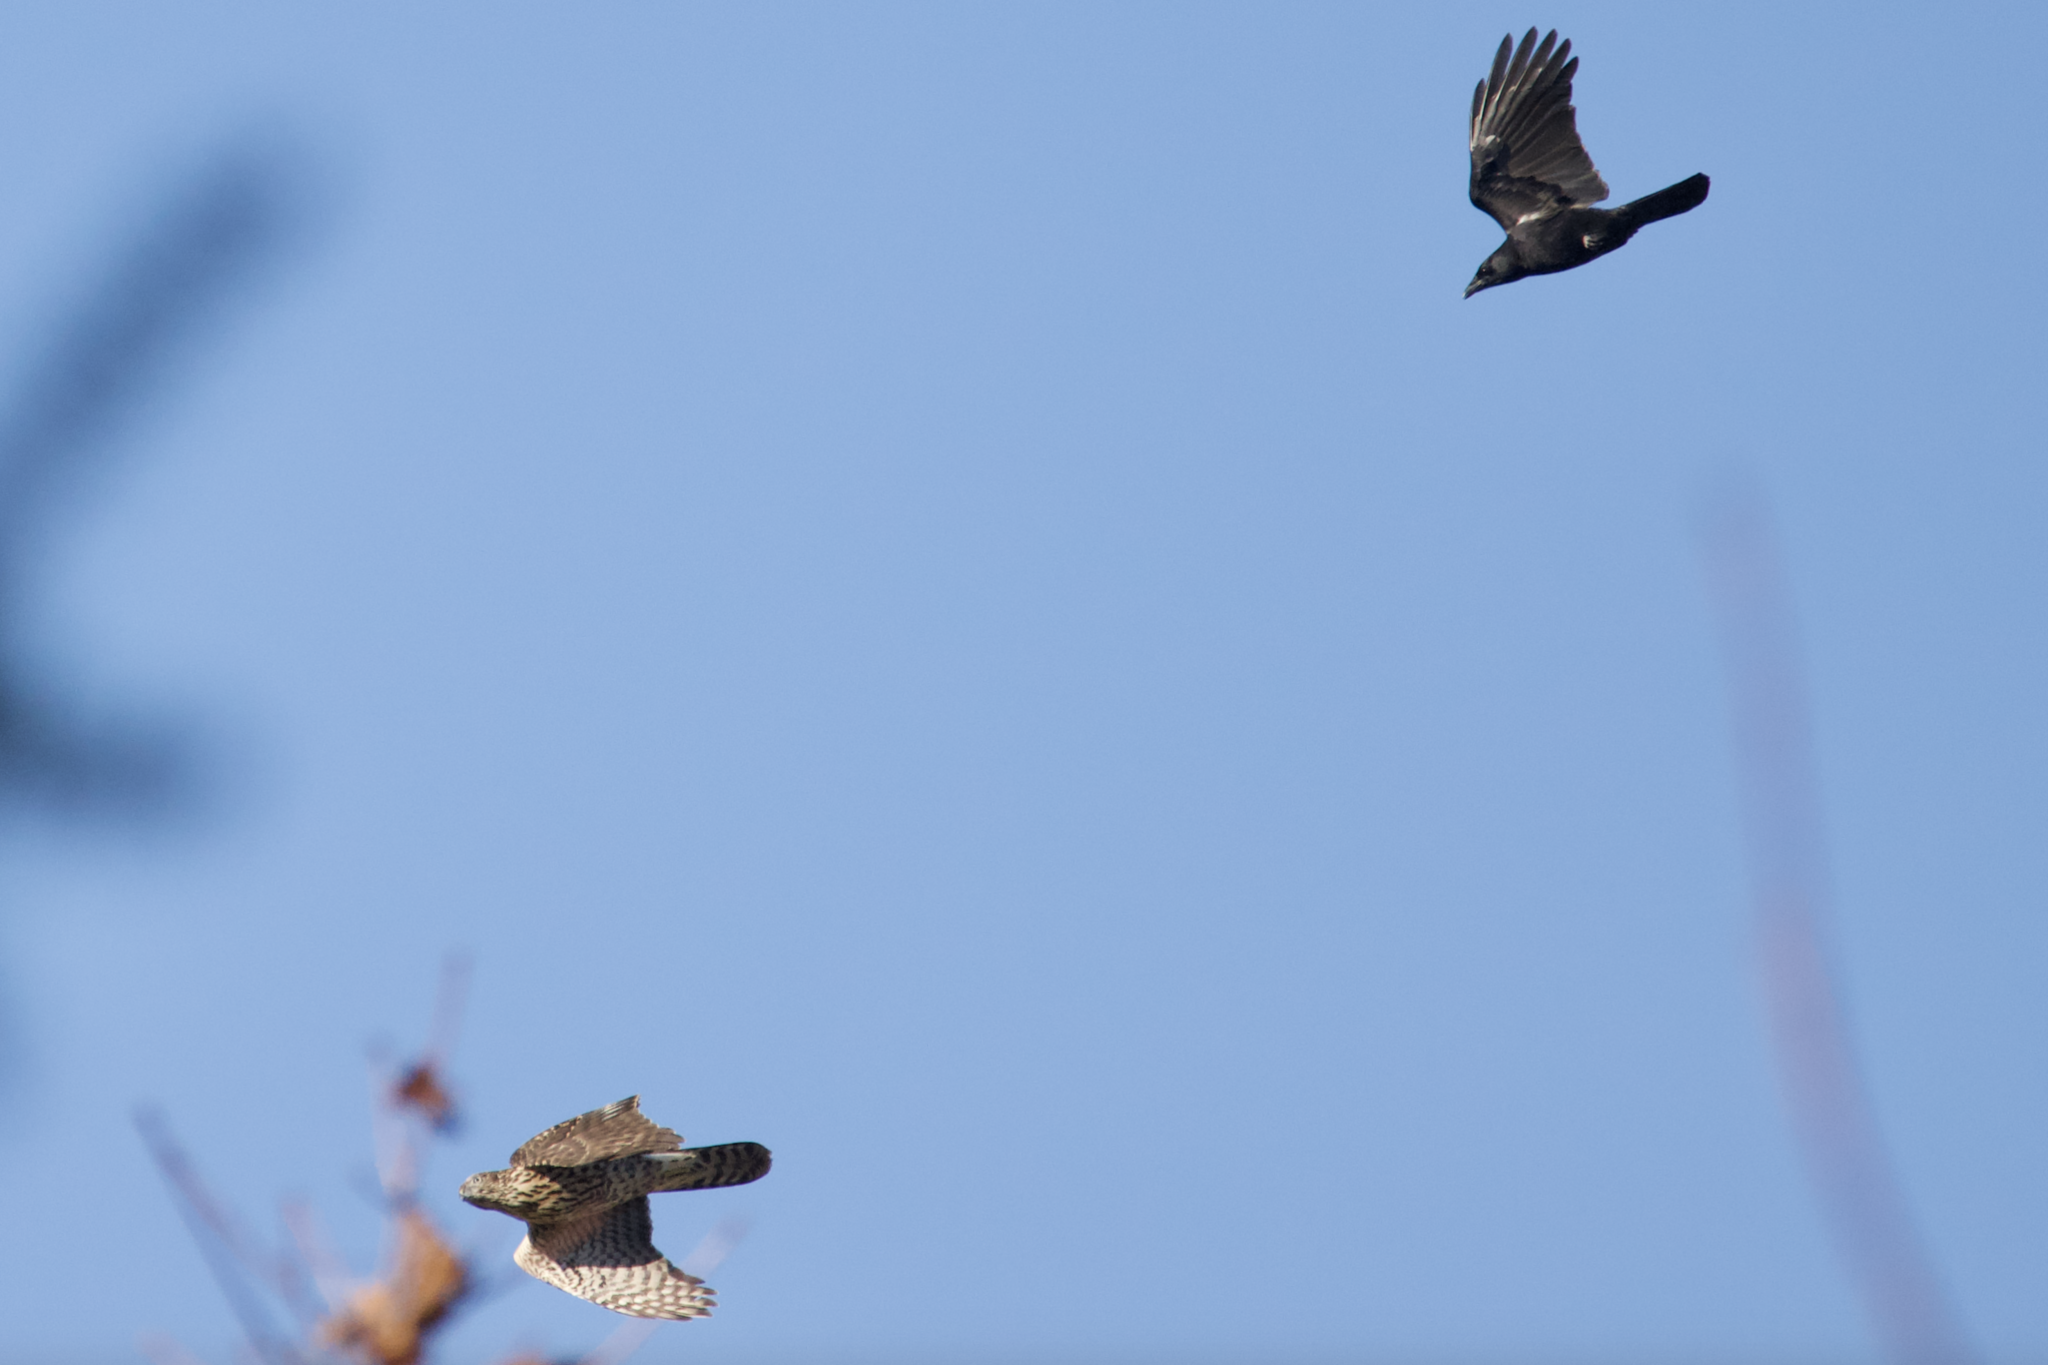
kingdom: Animalia
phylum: Chordata
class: Aves
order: Accipitriformes
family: Accipitridae
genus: Accipiter
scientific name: Accipiter gentilis
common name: Northern goshawk
